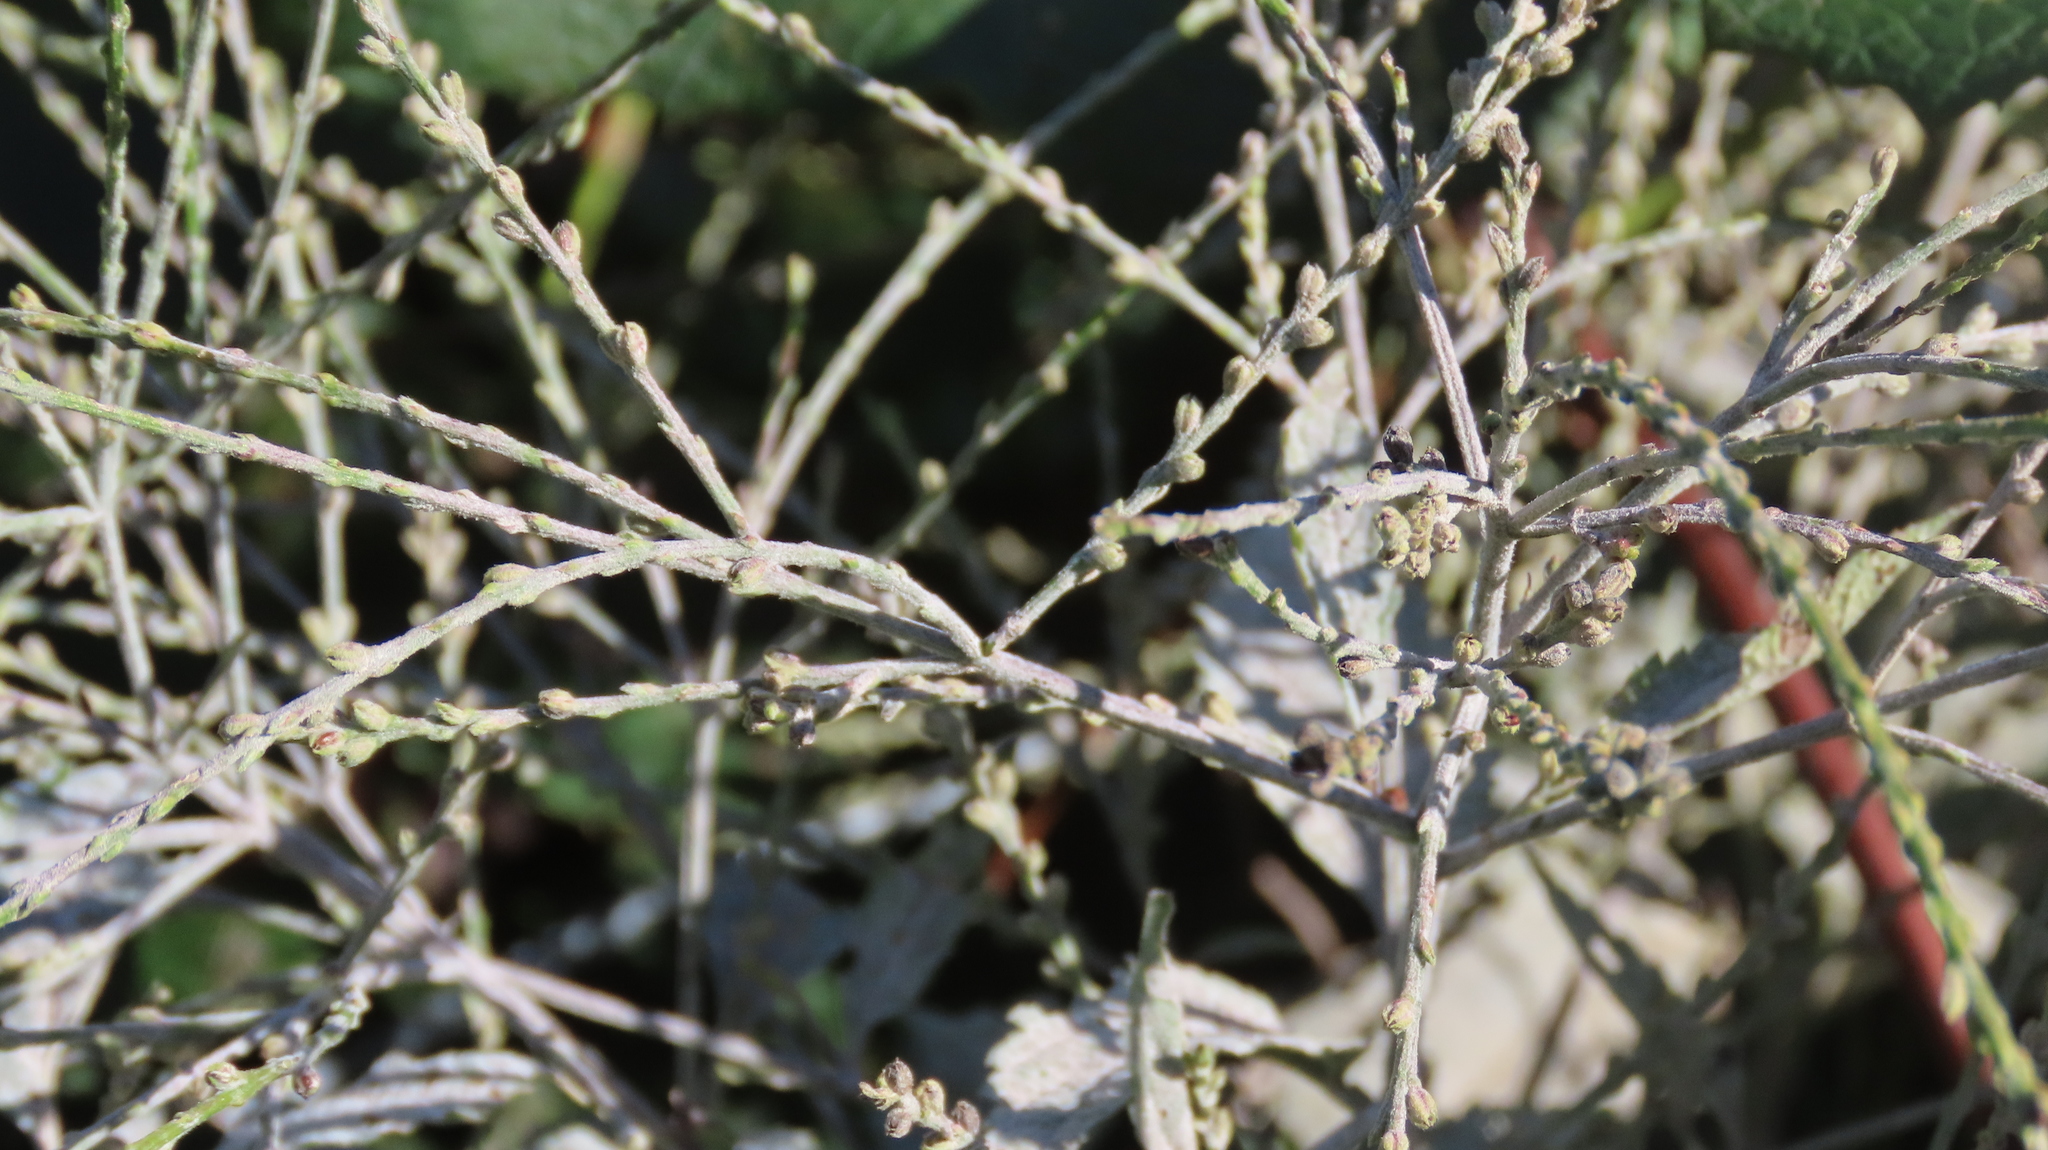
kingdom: Plantae
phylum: Tracheophyta
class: Magnoliopsida
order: Lamiales
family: Verbenaceae
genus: Verbena
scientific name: Verbena urticifolia
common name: Nettle-leaved vervain
